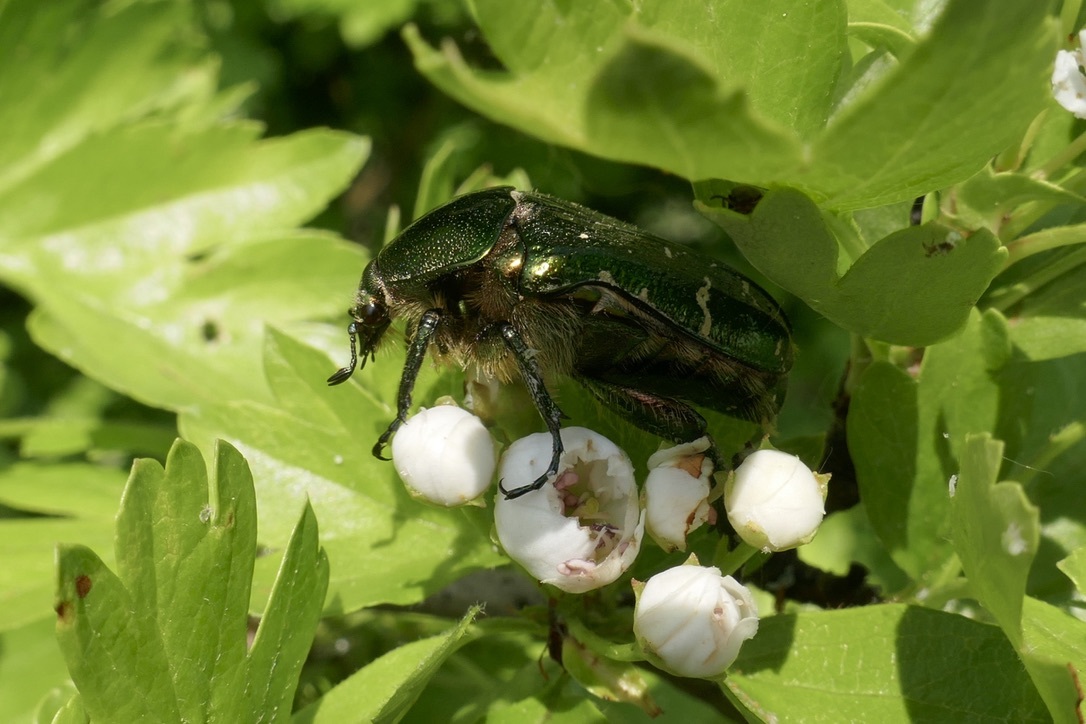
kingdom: Animalia
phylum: Arthropoda
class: Insecta
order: Coleoptera
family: Scarabaeidae
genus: Cetonia
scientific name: Cetonia aurata
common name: Rose chafer
